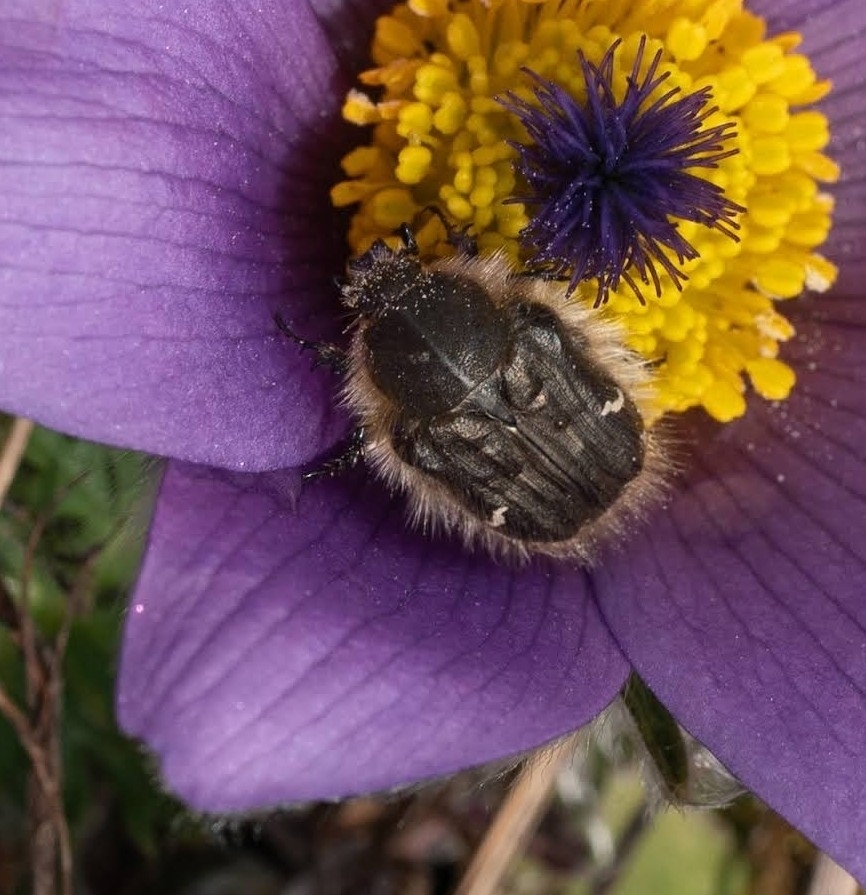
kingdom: Animalia
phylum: Arthropoda
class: Insecta
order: Coleoptera
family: Scarabaeidae
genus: Tropinota
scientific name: Tropinota hirta
